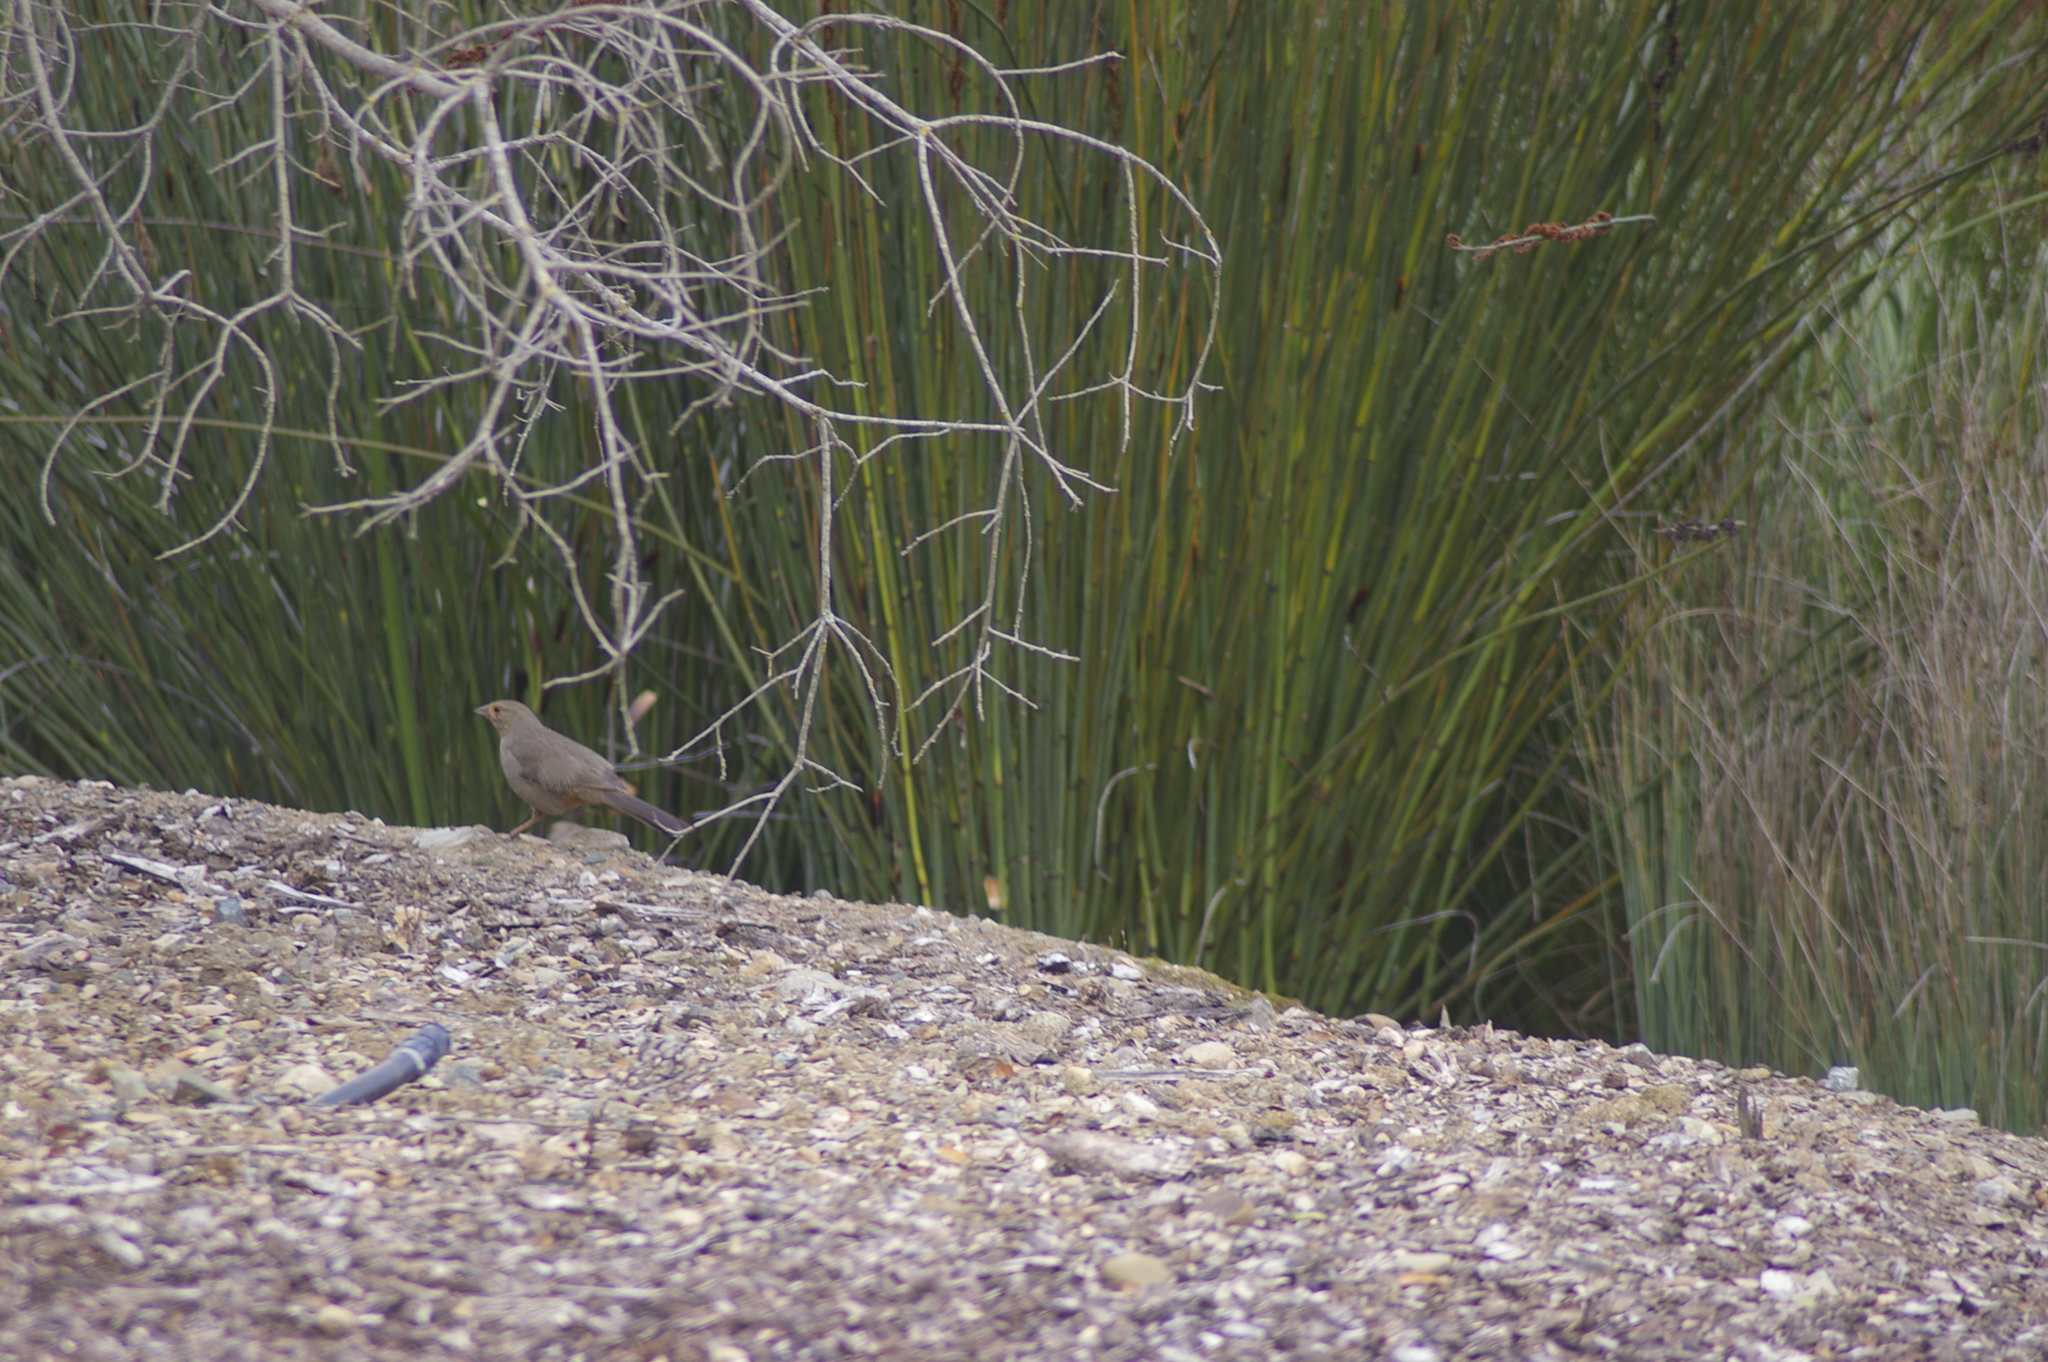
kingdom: Animalia
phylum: Chordata
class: Aves
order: Passeriformes
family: Passerellidae
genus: Melozone
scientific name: Melozone crissalis
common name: California towhee
